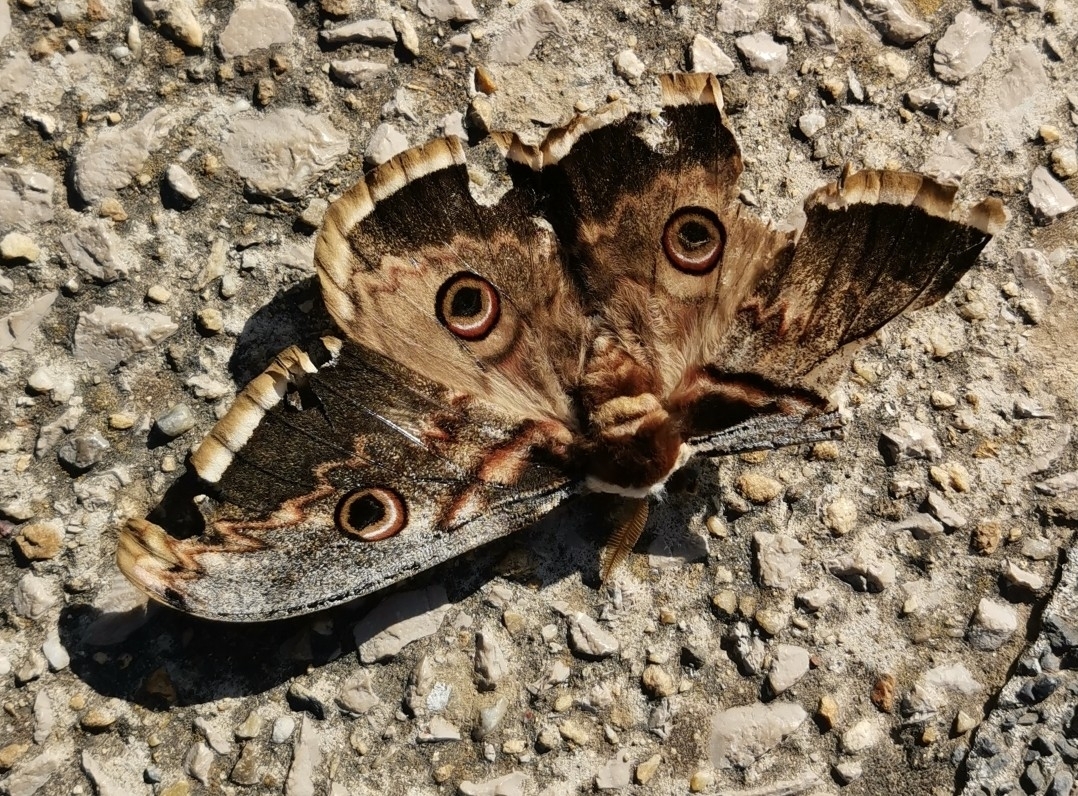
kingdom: Animalia
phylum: Arthropoda
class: Insecta
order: Lepidoptera
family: Saturniidae
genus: Saturnia
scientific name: Saturnia pyri
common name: Great peacock moth
